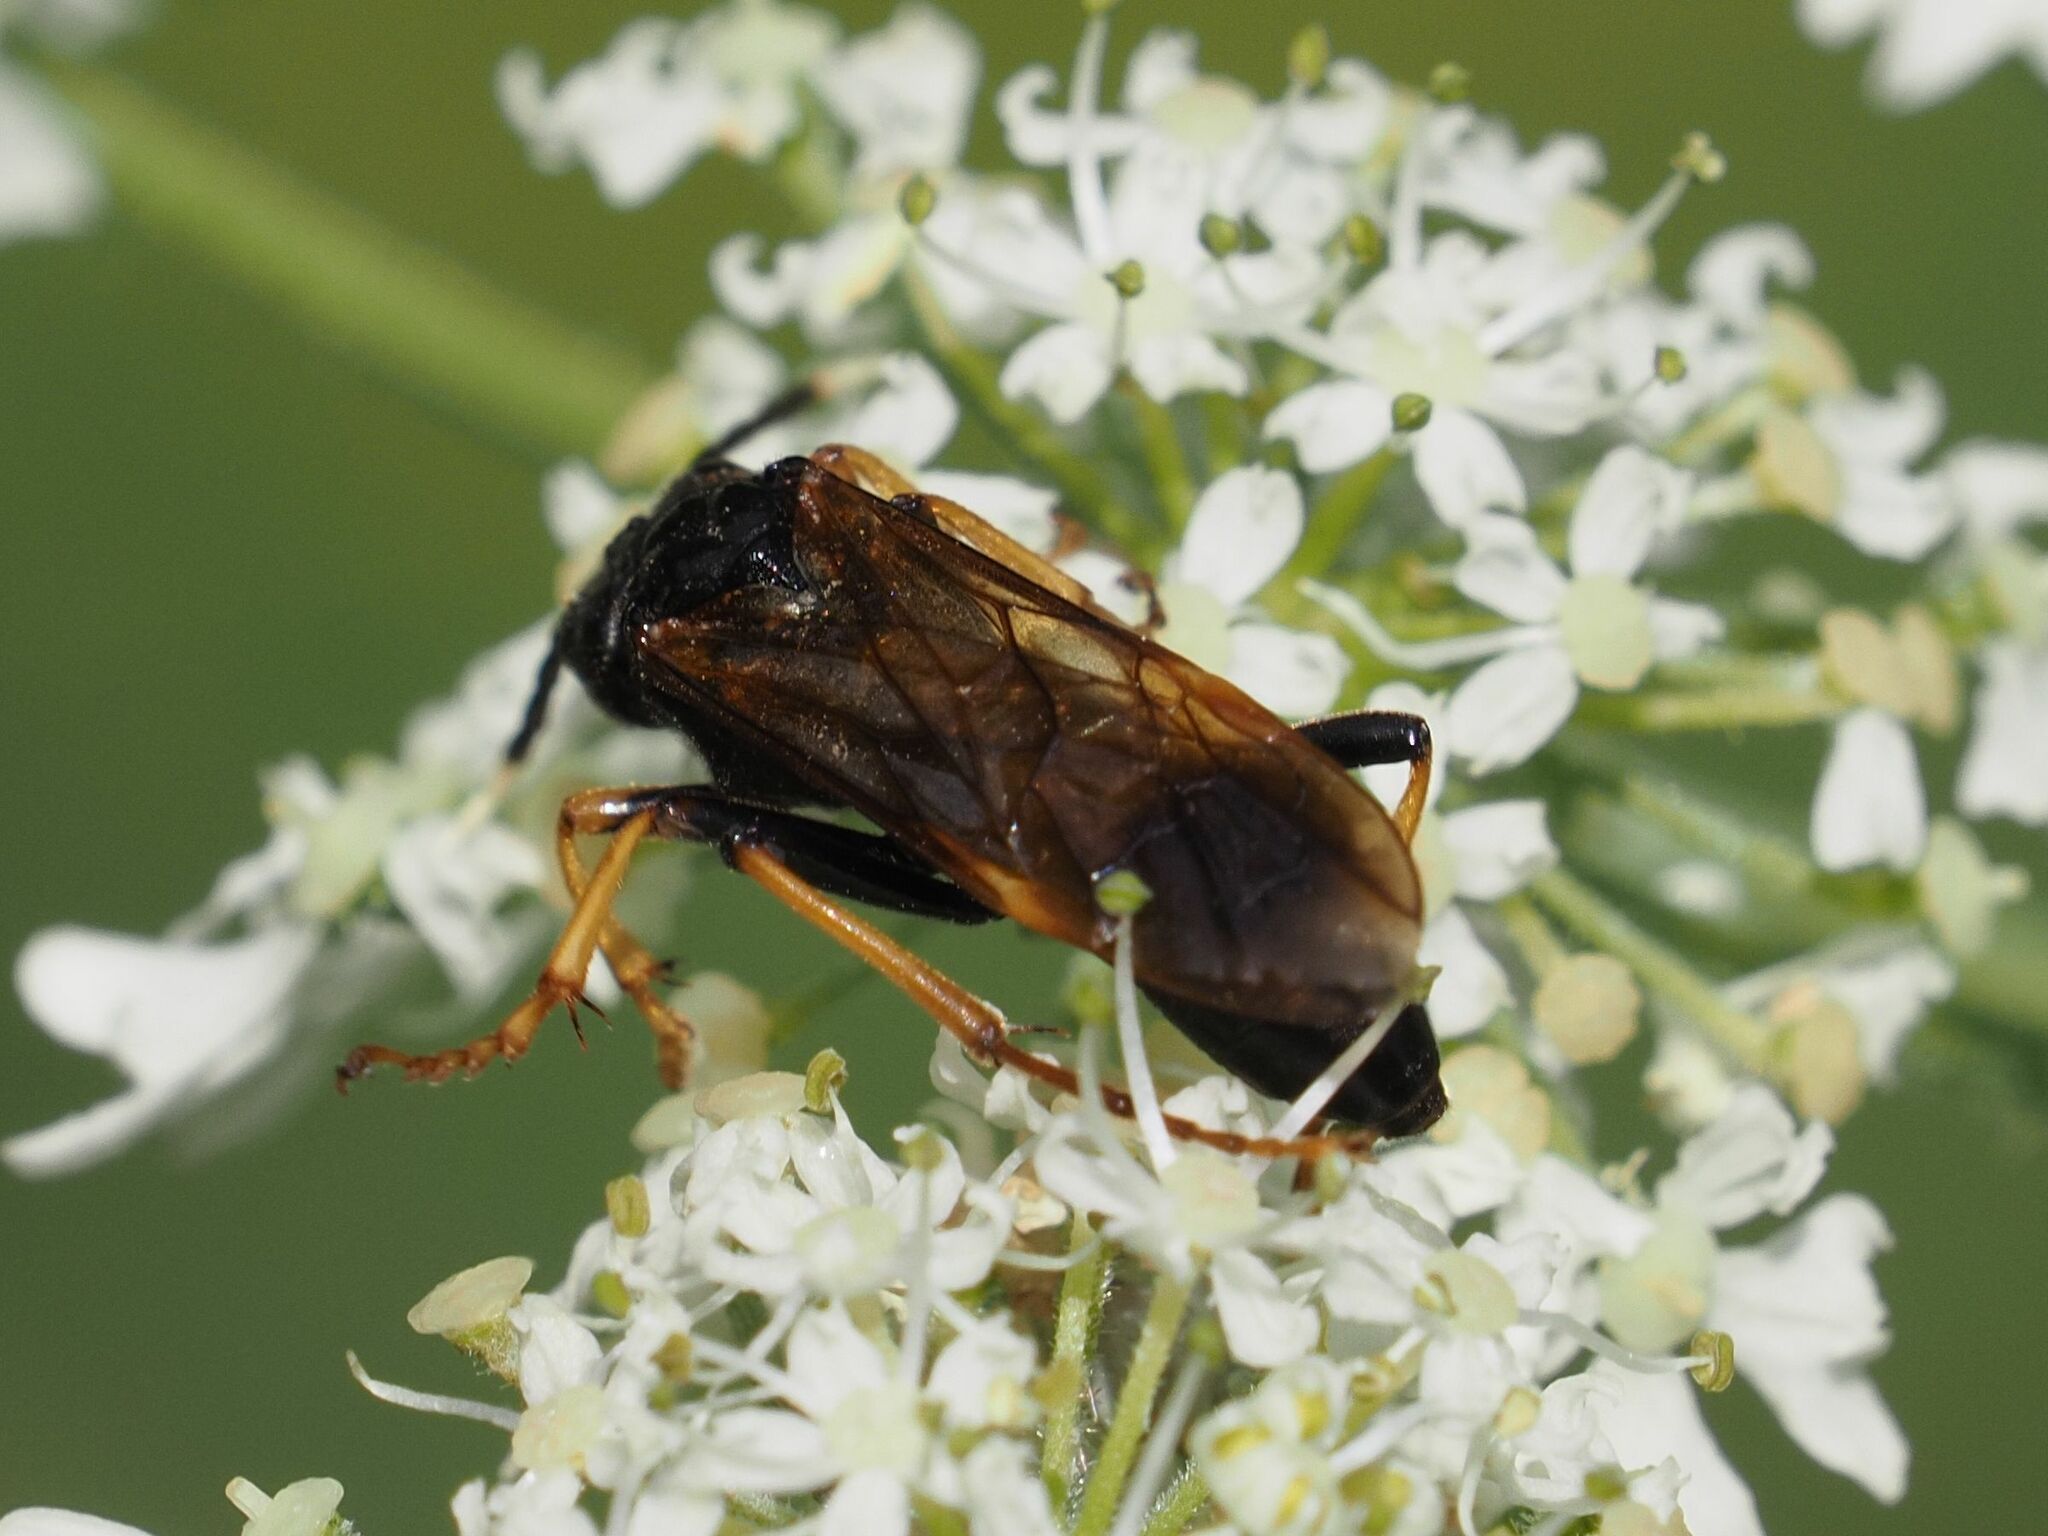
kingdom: Animalia
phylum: Arthropoda
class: Insecta
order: Hymenoptera
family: Tenthredinidae
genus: Tenthredo
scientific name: Tenthredo crassa
